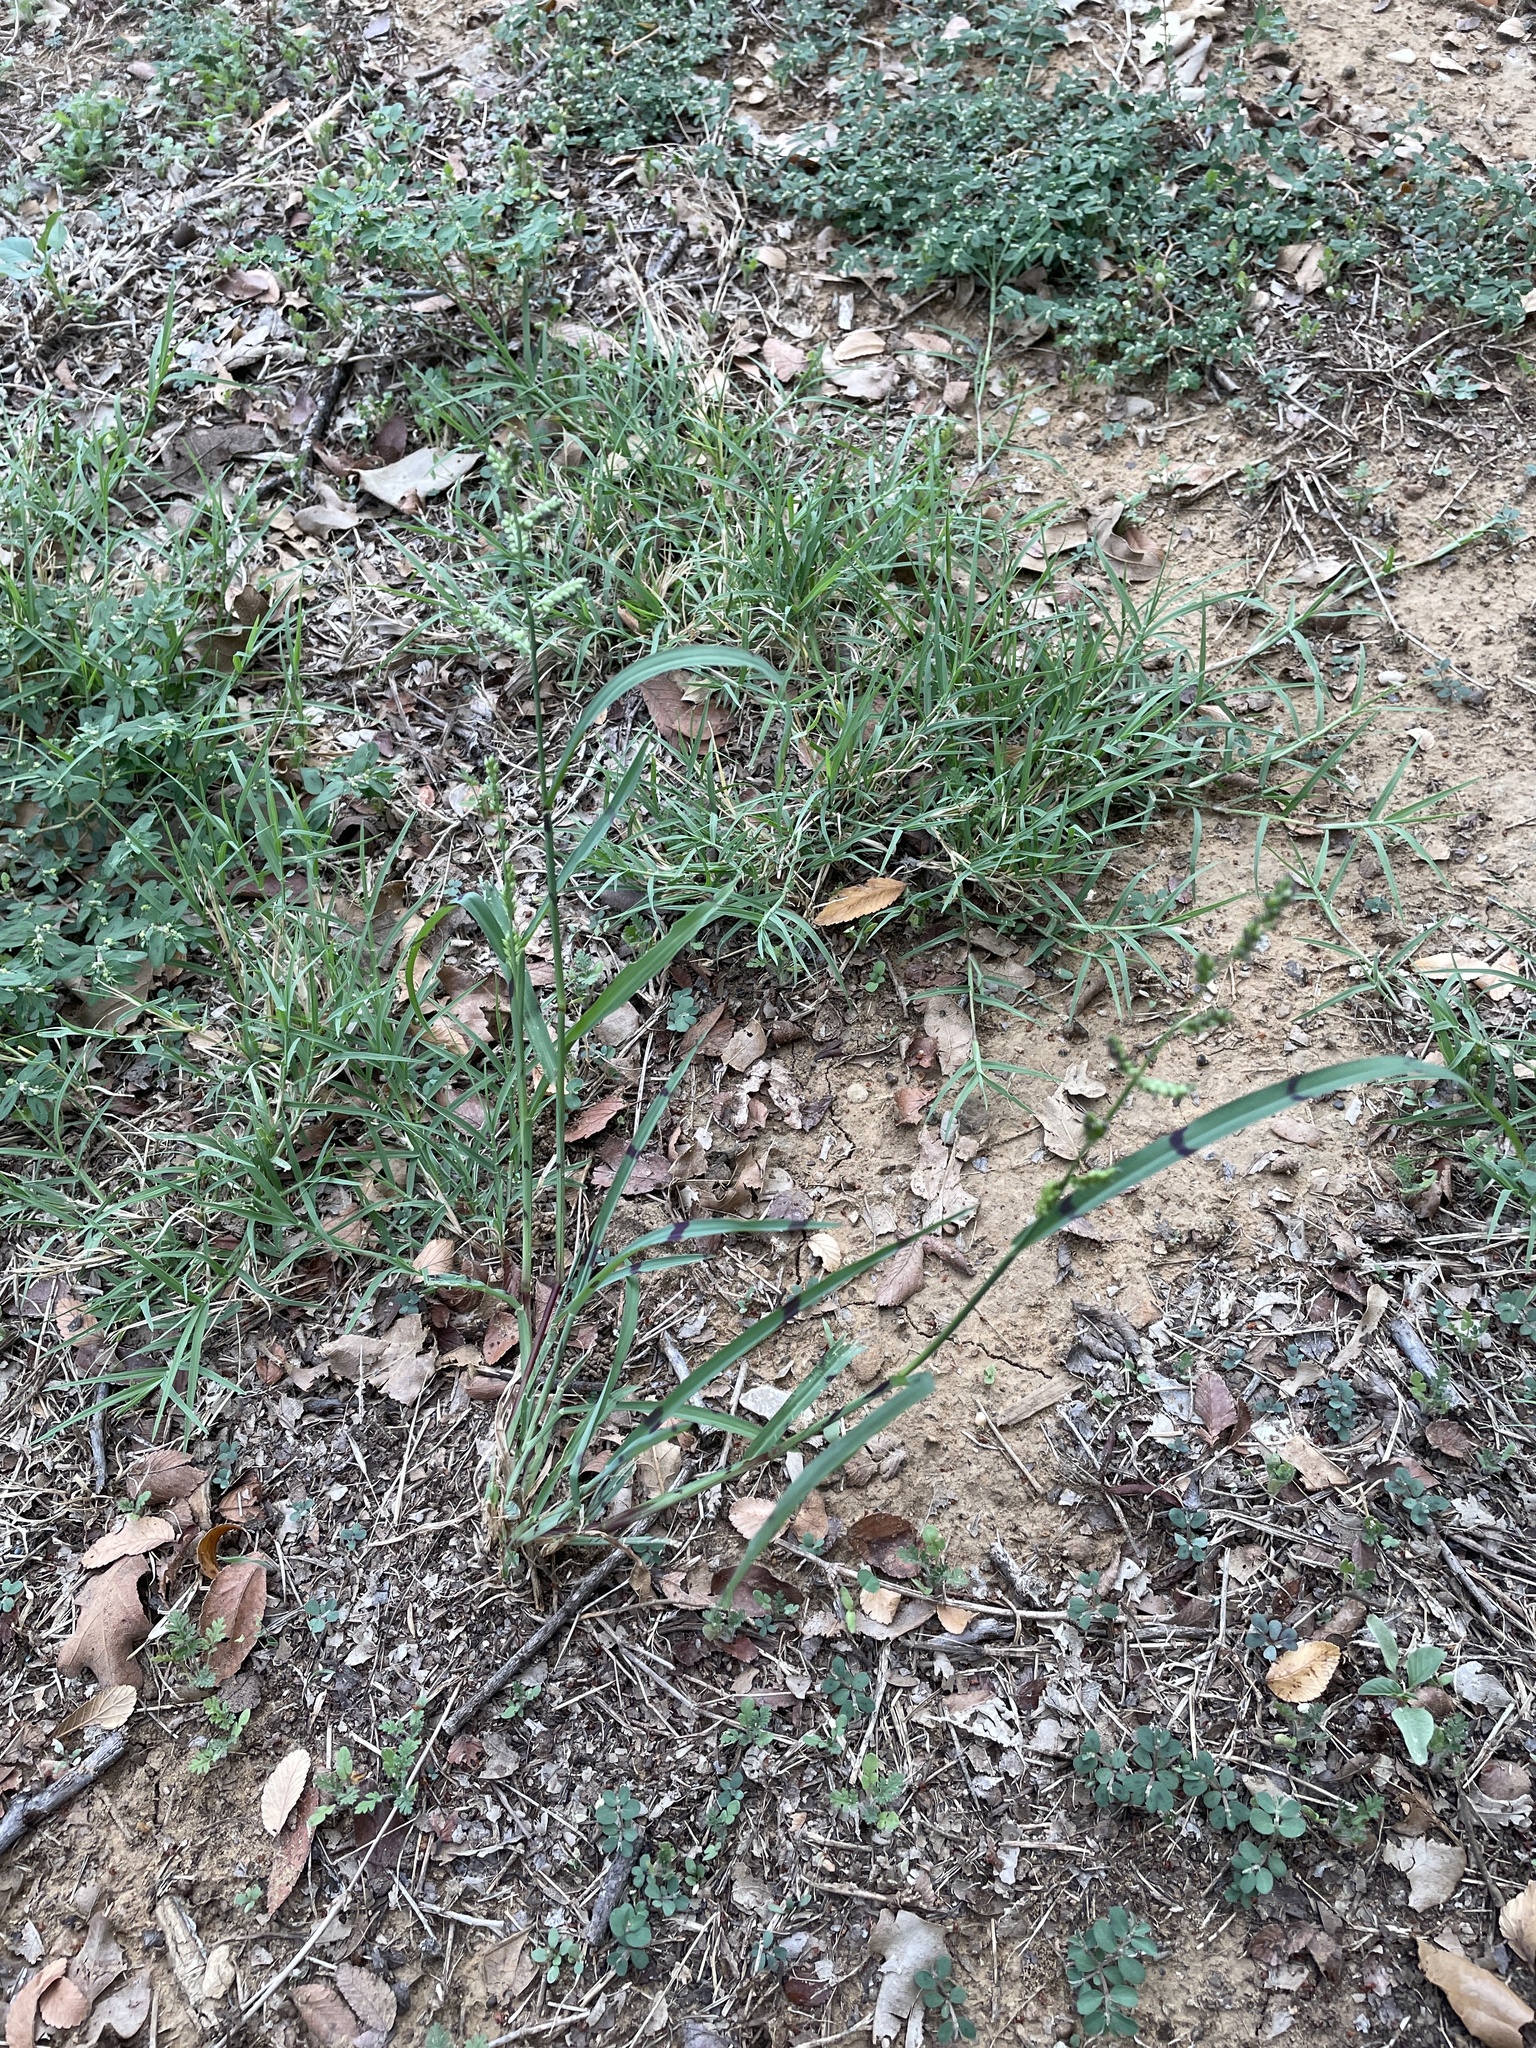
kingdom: Plantae
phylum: Tracheophyta
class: Liliopsida
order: Poales
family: Poaceae
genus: Echinochloa
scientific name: Echinochloa colonum
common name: Jungle rice
